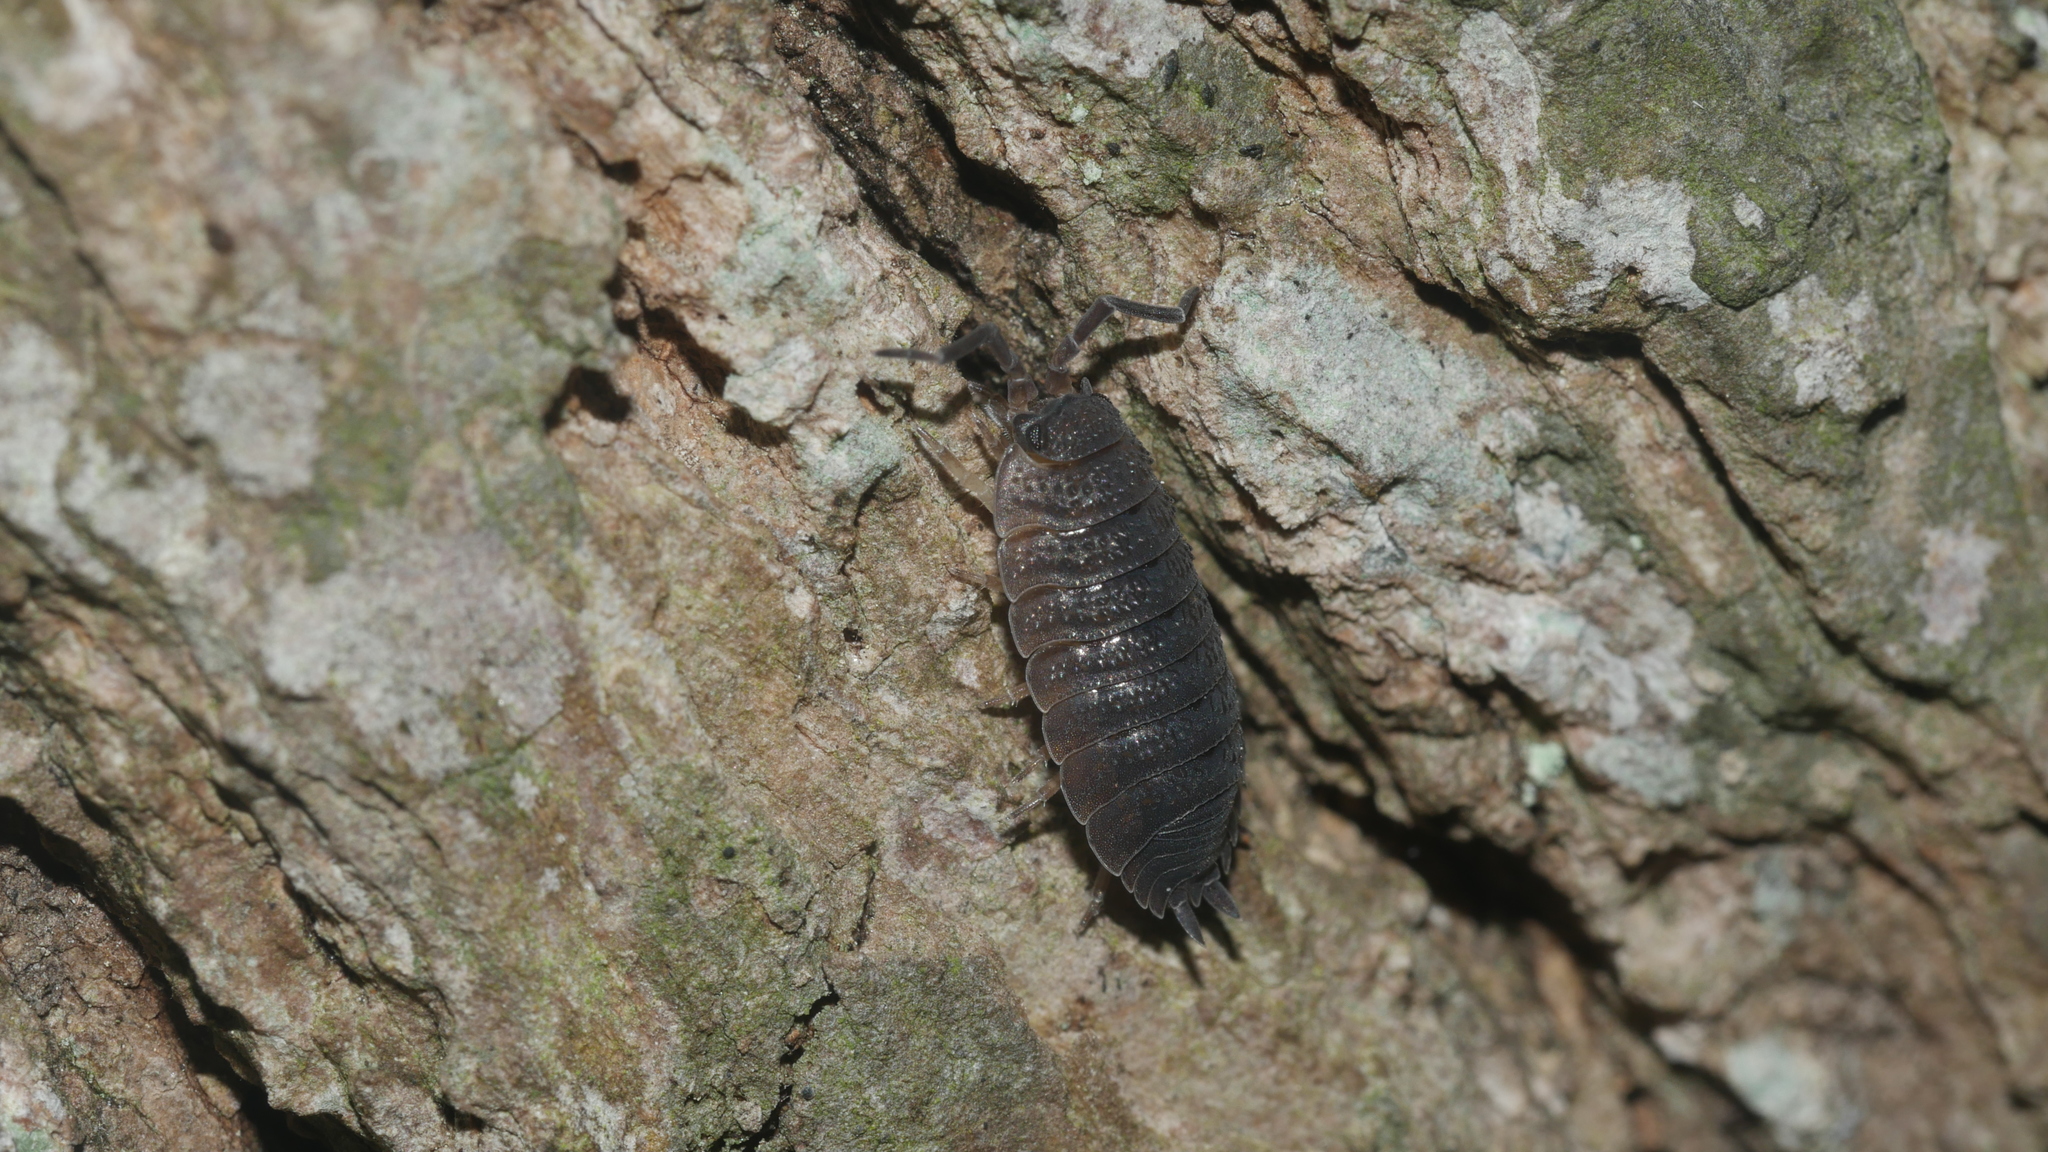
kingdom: Animalia
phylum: Arthropoda
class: Malacostraca
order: Isopoda
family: Porcellionidae
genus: Porcellio
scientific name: Porcellio scaber
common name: Common rough woodlouse
